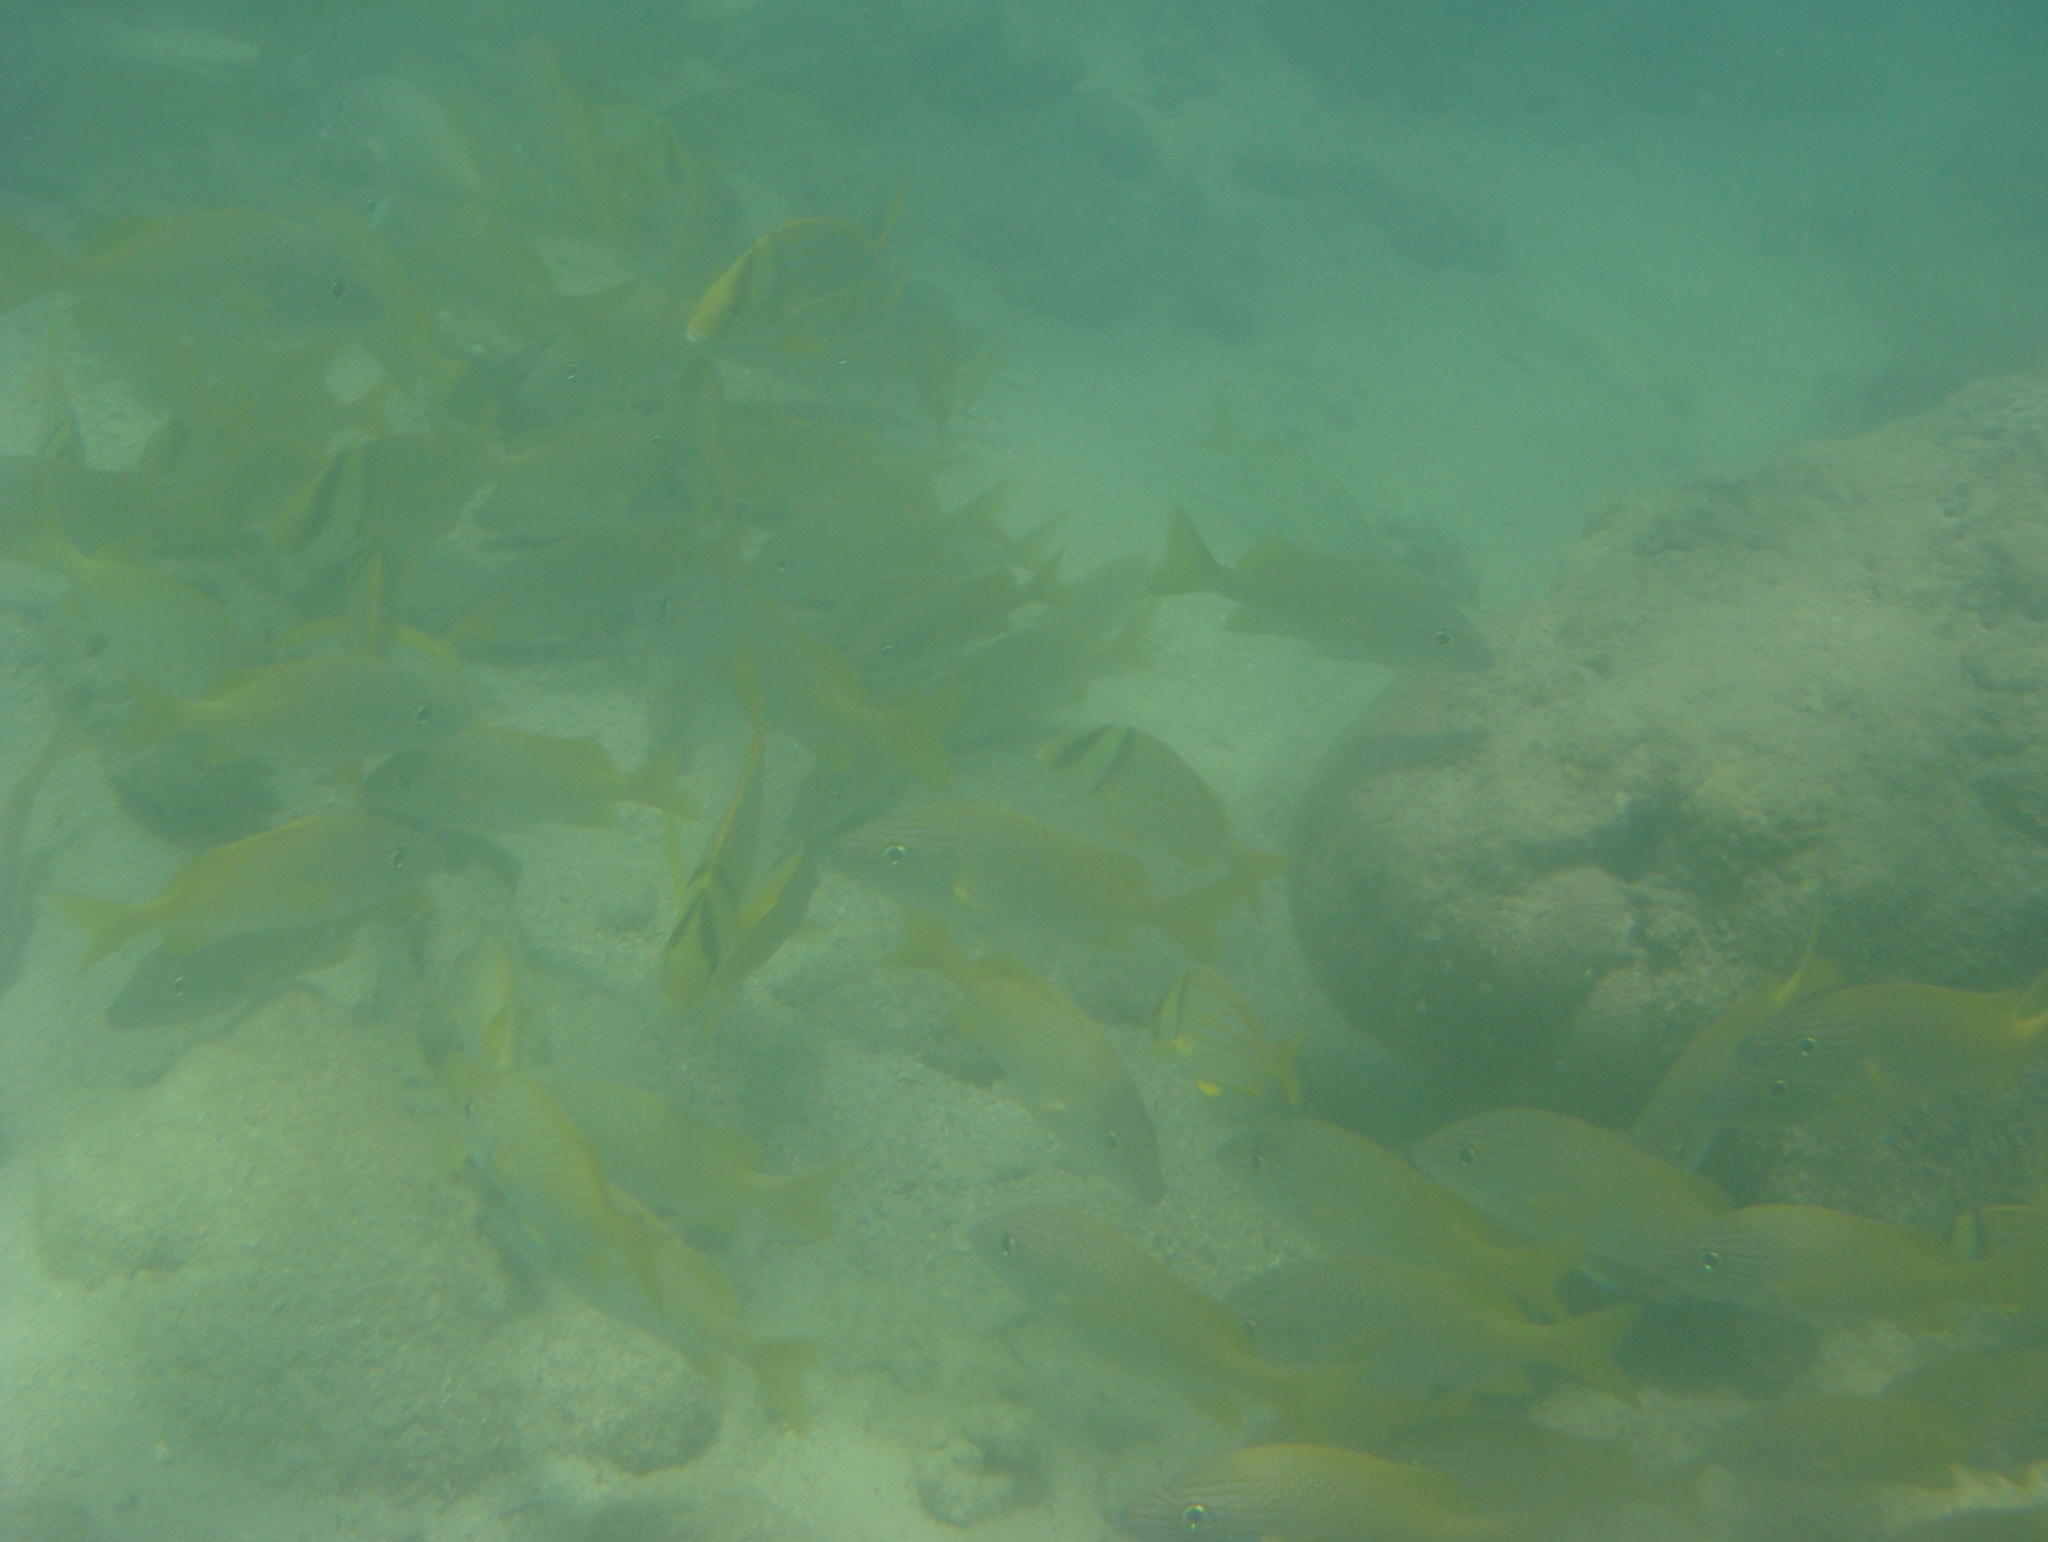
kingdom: Animalia
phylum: Chordata
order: Perciformes
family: Haemulidae
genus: Anisotremus
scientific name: Anisotremus virginicus
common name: Porkfish
